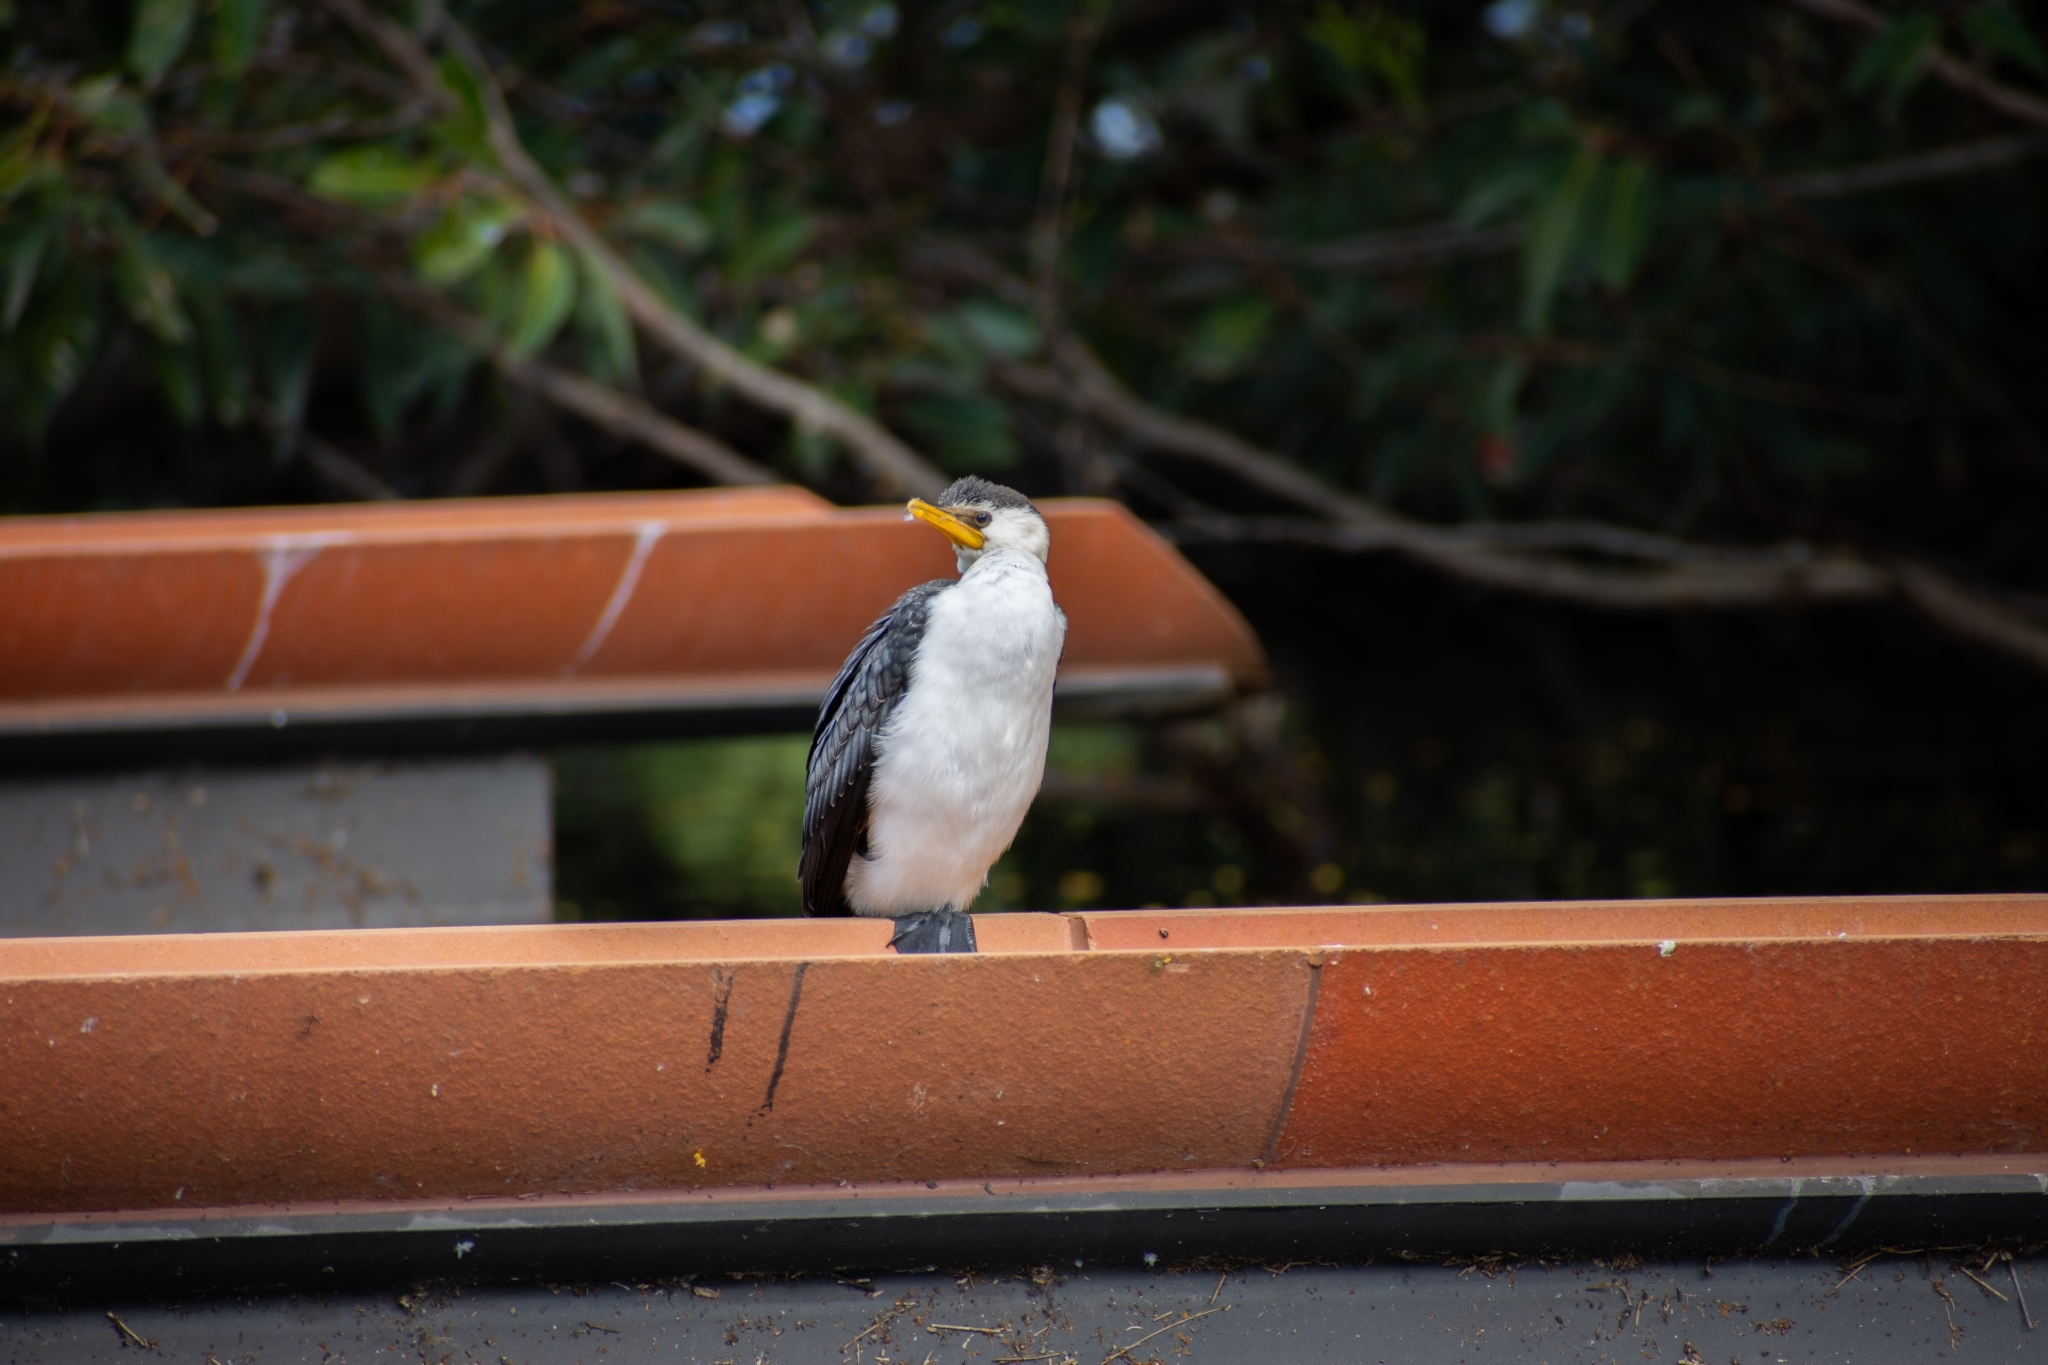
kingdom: Animalia
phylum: Chordata
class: Aves
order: Suliformes
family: Phalacrocoracidae
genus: Microcarbo
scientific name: Microcarbo melanoleucos
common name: Little pied cormorant
